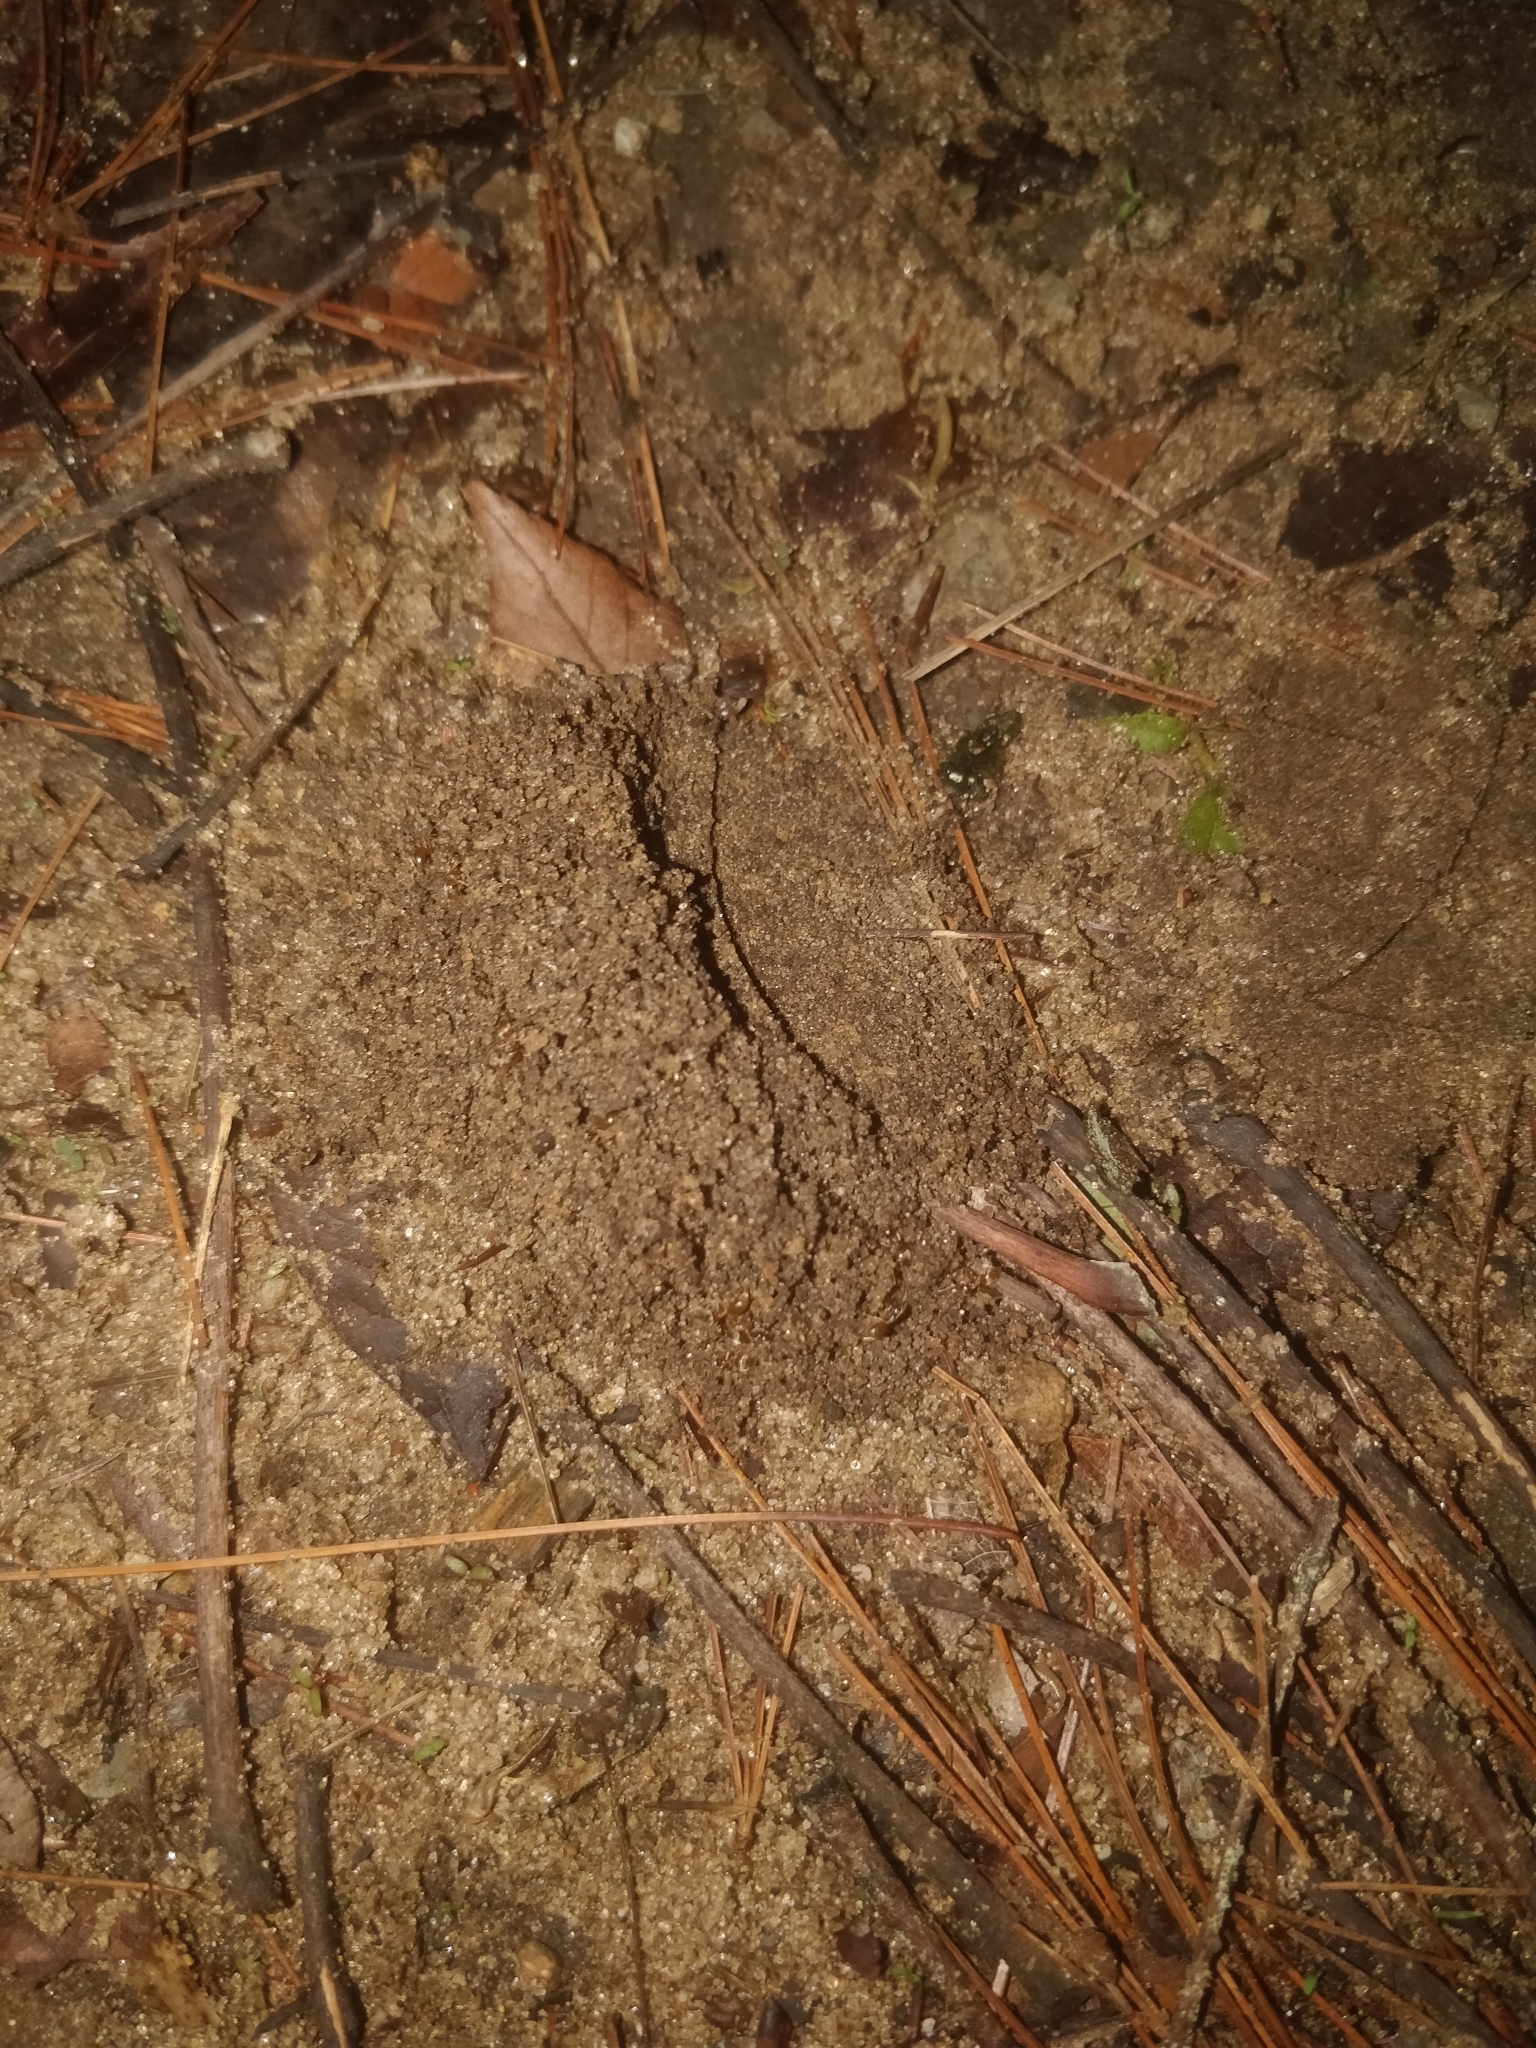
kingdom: Animalia
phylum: Arthropoda
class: Insecta
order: Hymenoptera
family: Formicidae
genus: Lasius
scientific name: Lasius neoniger
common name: Turfgrass ant
